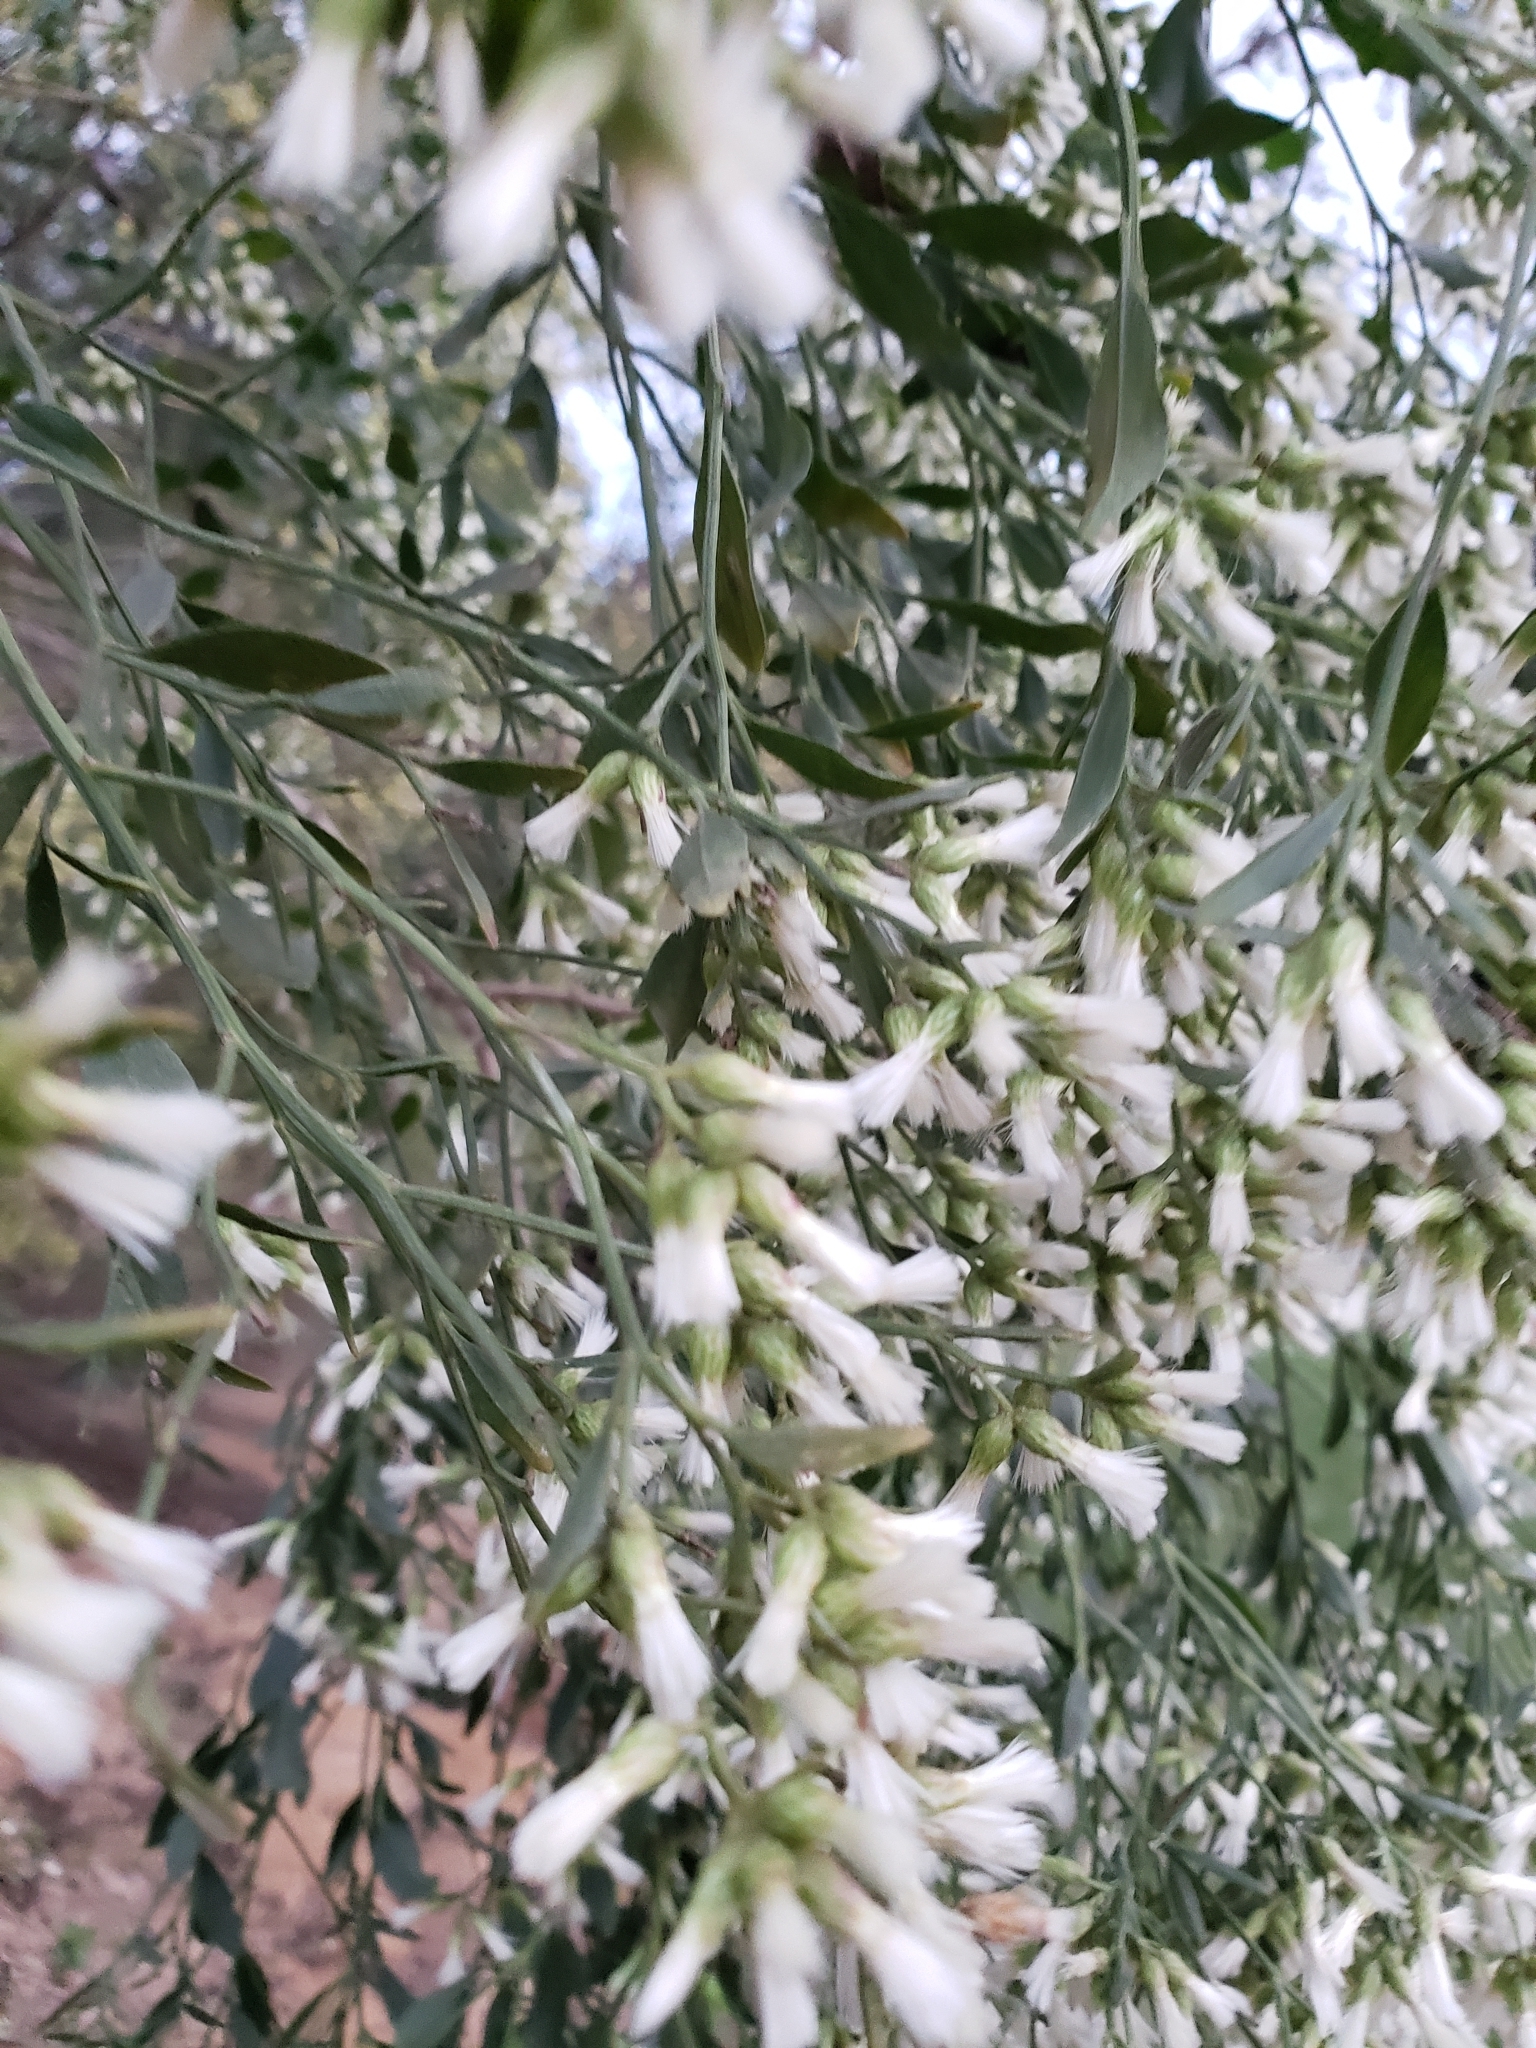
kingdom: Plantae
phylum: Tracheophyta
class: Magnoliopsida
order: Asterales
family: Asteraceae
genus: Baccharis
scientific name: Baccharis halimifolia
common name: Eastern baccharis
